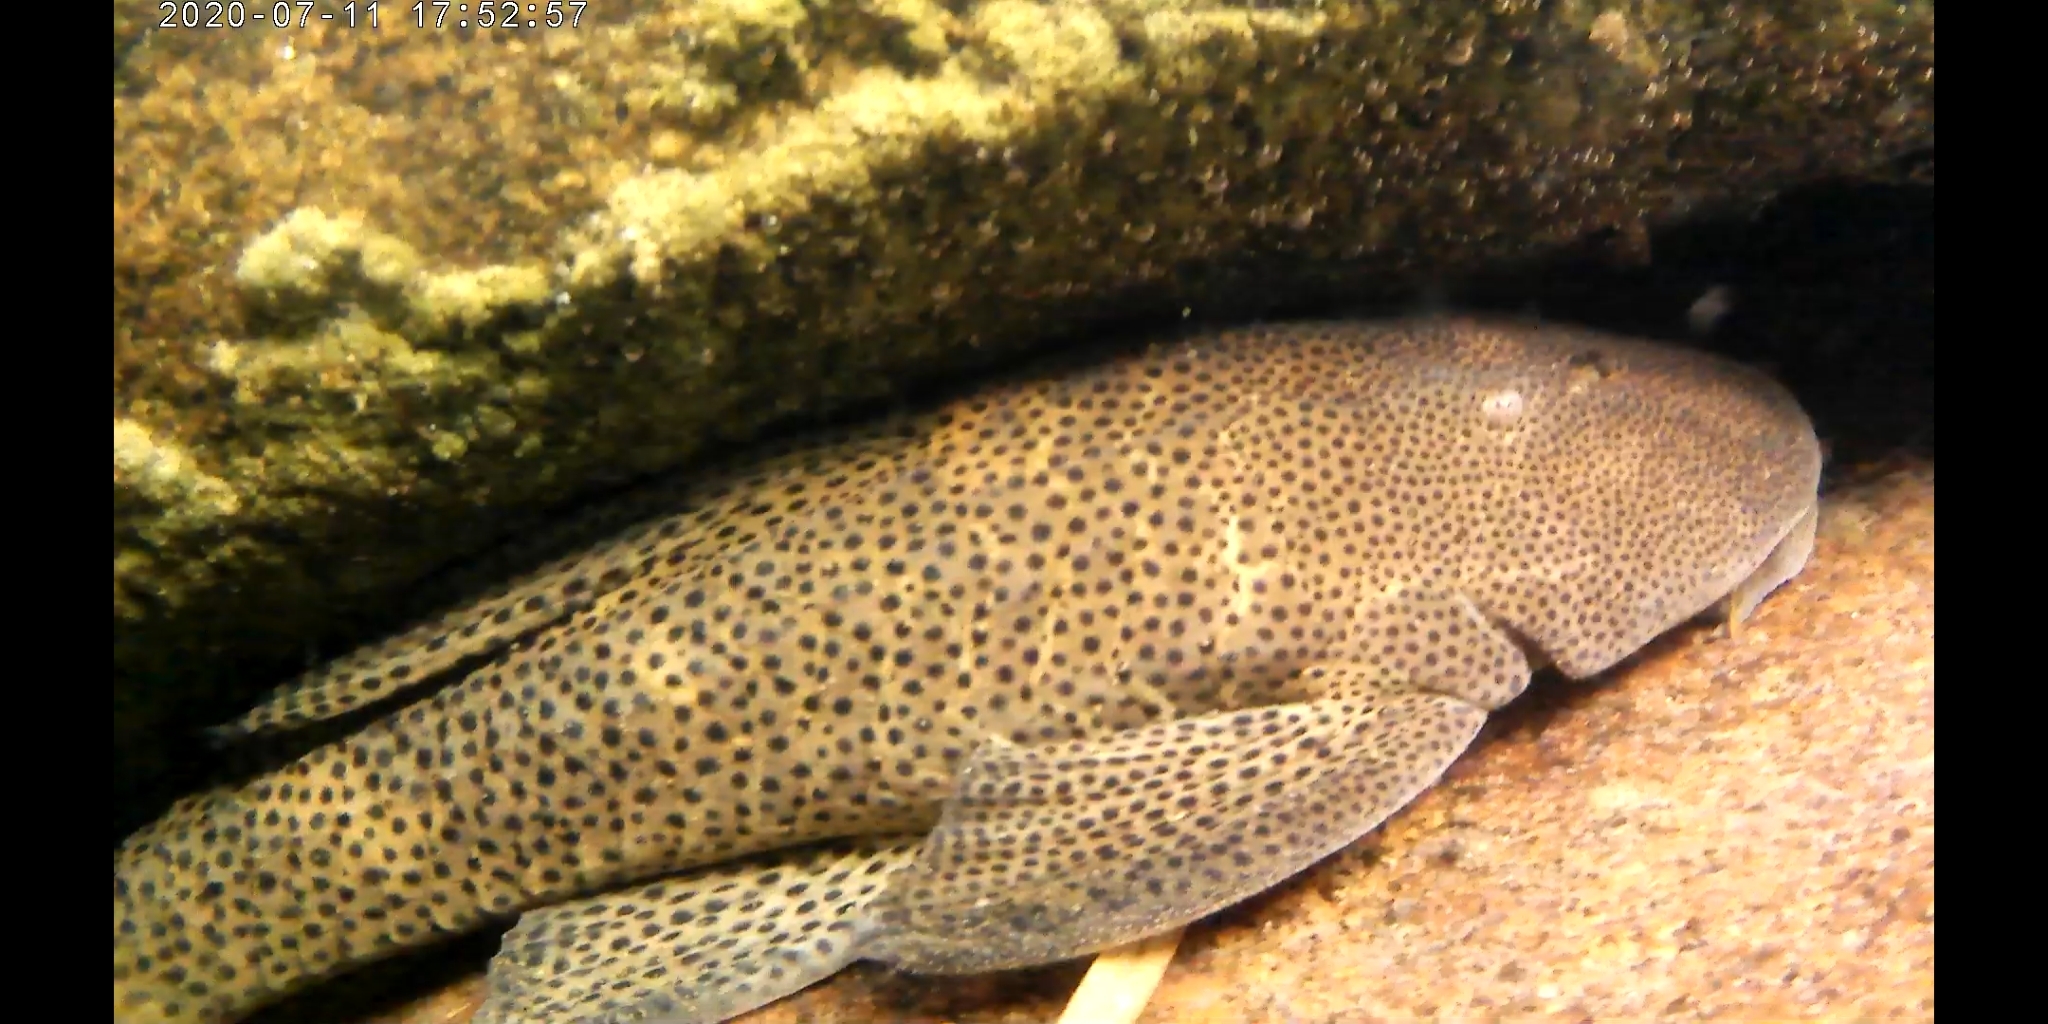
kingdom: Animalia
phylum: Chordata
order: Siluriformes
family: Loricariidae
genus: Hypostomus
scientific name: Hypostomus paranensis
